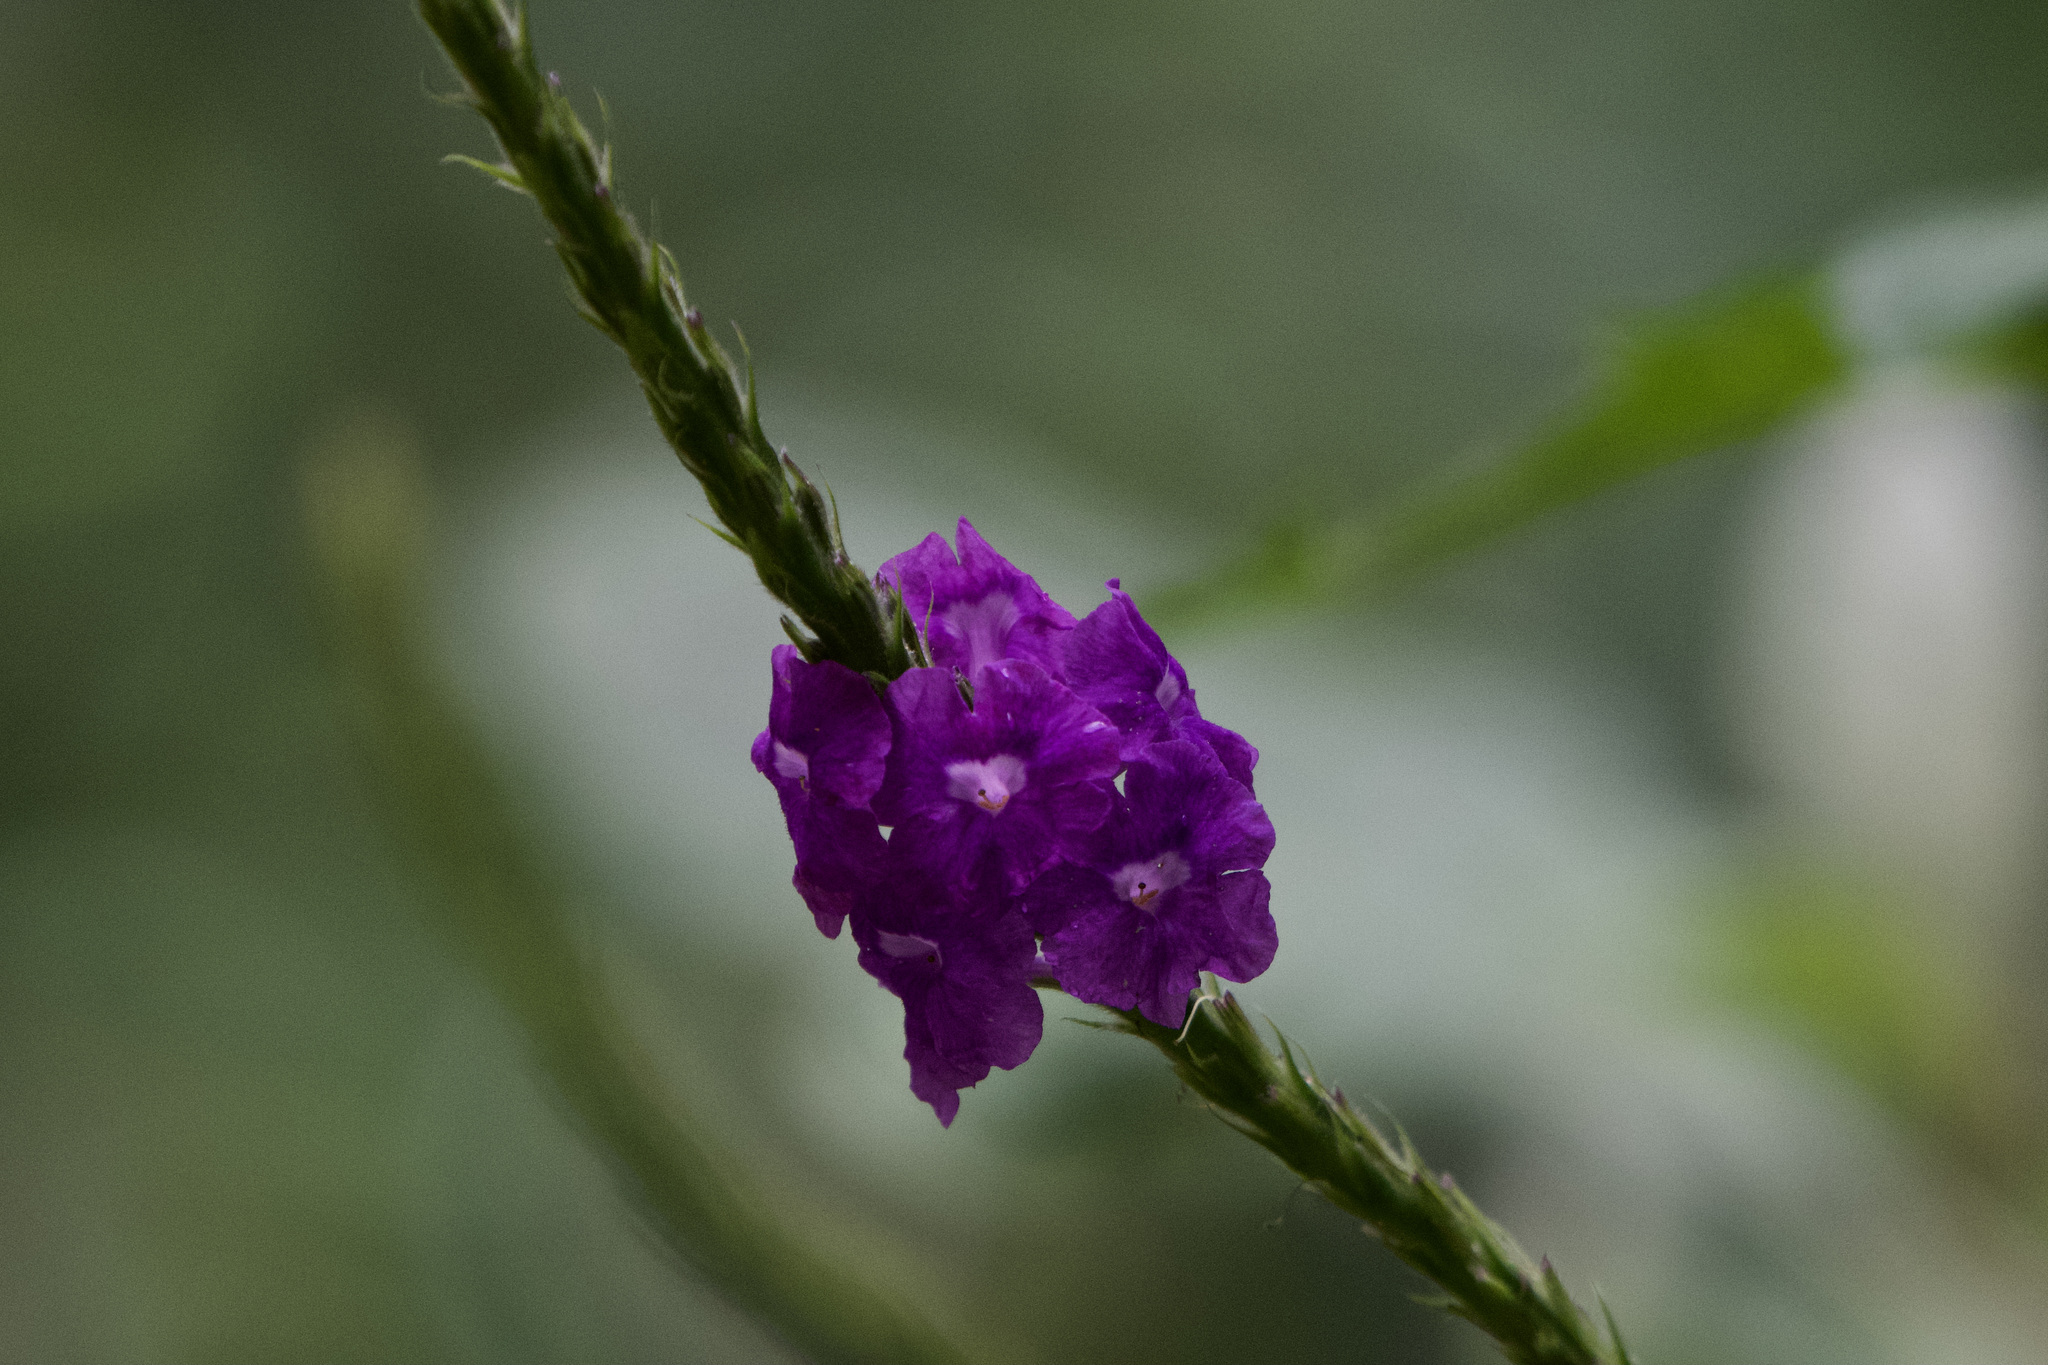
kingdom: Plantae
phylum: Tracheophyta
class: Magnoliopsida
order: Lamiales
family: Verbenaceae
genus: Stachytarpheta
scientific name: Stachytarpheta jamaicensis
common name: Light-blue snakeweed
